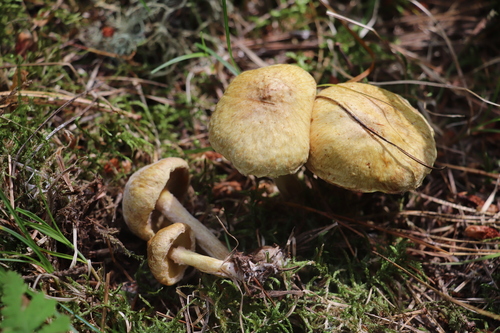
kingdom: Fungi
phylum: Basidiomycota
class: Agaricomycetes
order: Boletales
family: Suillaceae
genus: Suillus
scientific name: Suillus americanus
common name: Chicken fat mushroom
